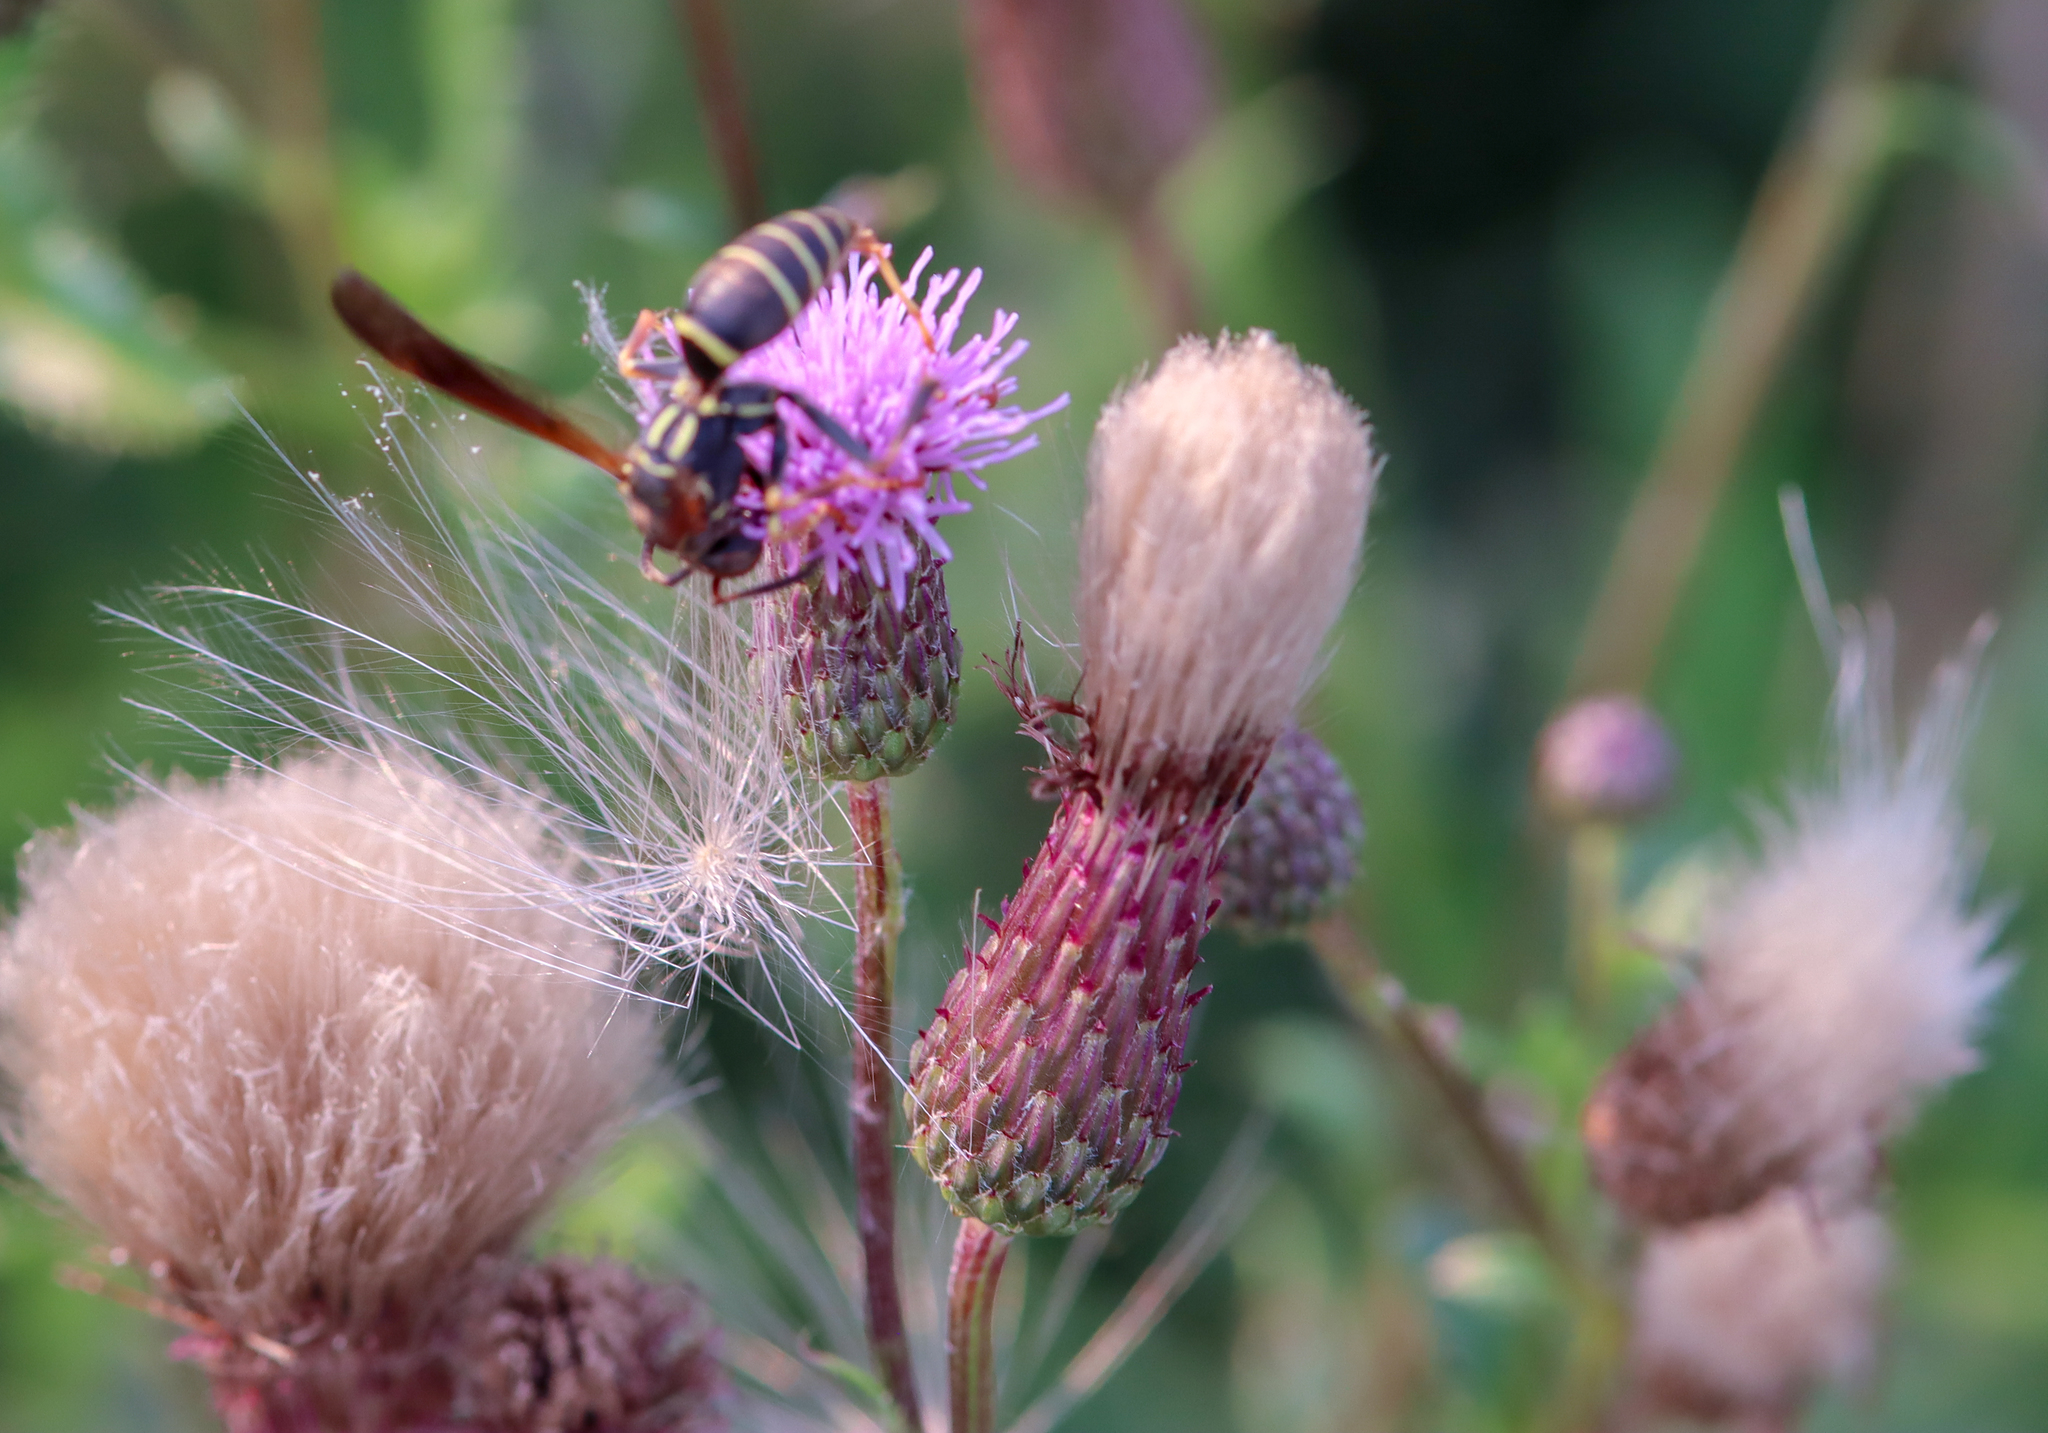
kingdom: Animalia
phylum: Arthropoda
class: Insecta
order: Hymenoptera
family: Eumenidae
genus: Polistes
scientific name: Polistes fuscatus
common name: Dark paper wasp
